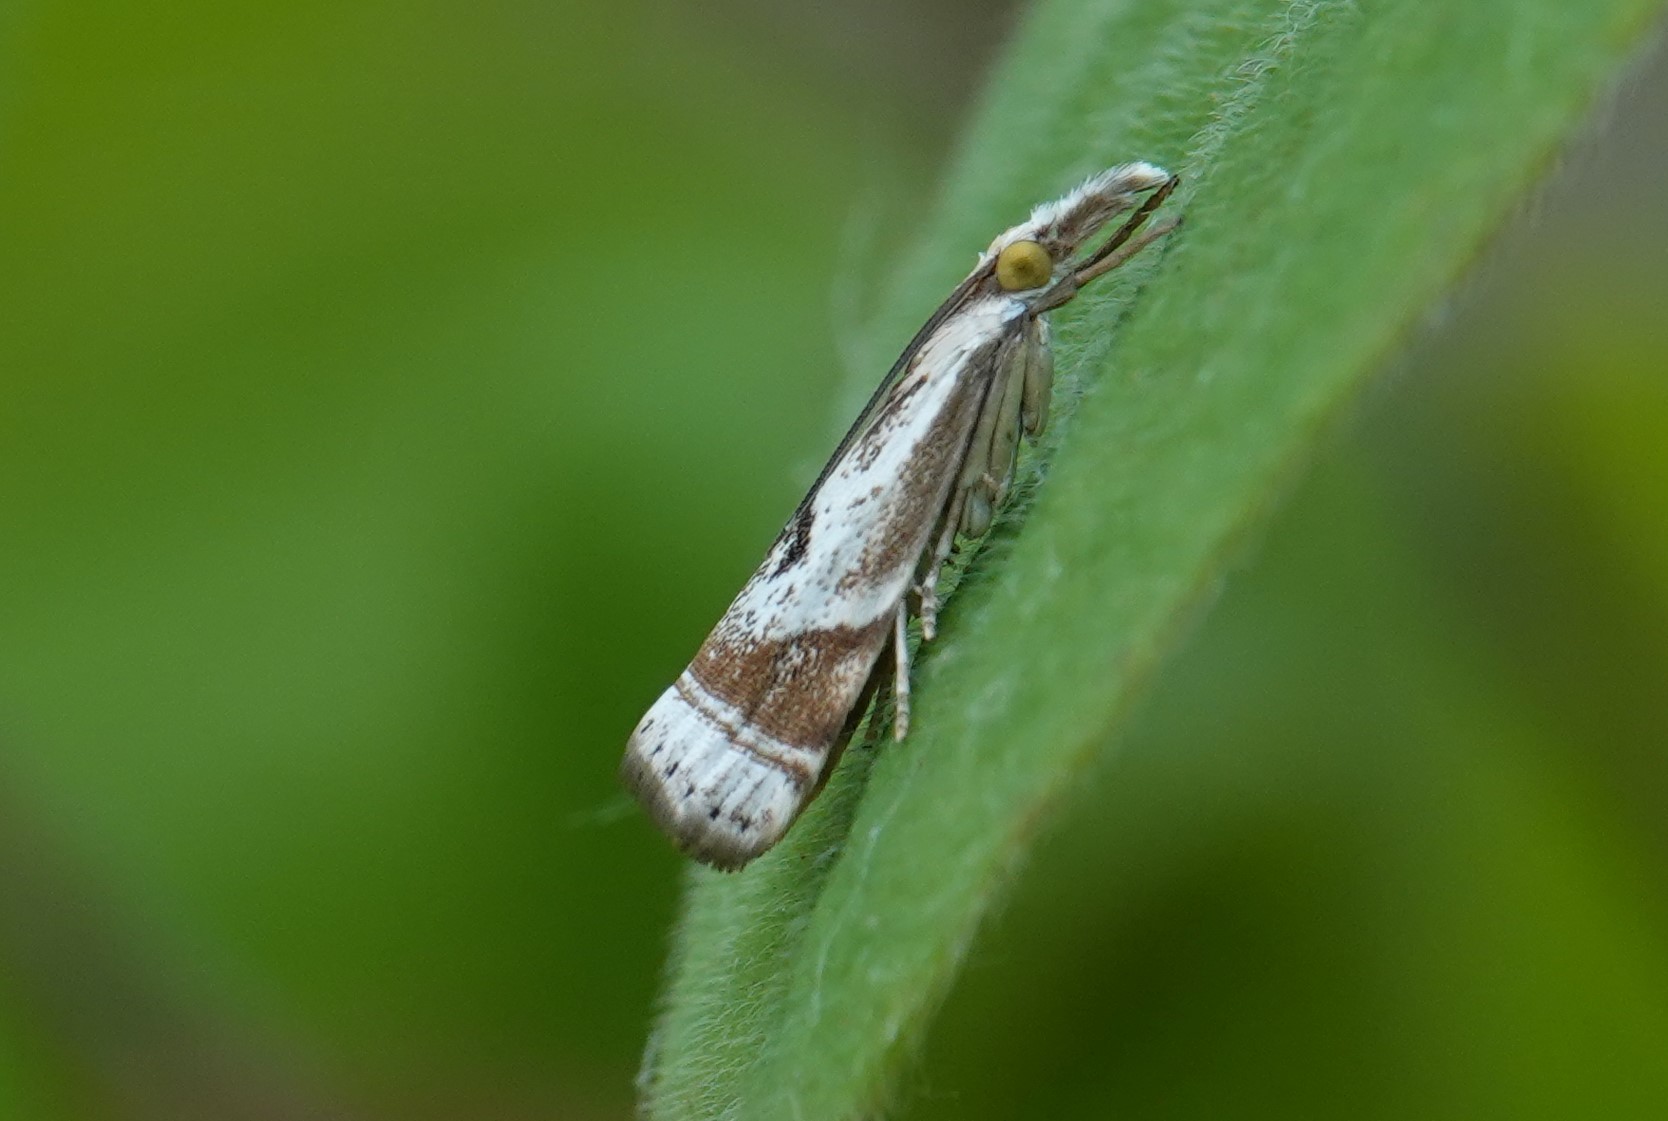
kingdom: Animalia
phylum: Arthropoda
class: Insecta
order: Lepidoptera
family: Crambidae
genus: Microcrambus
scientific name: Microcrambus elegans
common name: Elegant grass-veneer
